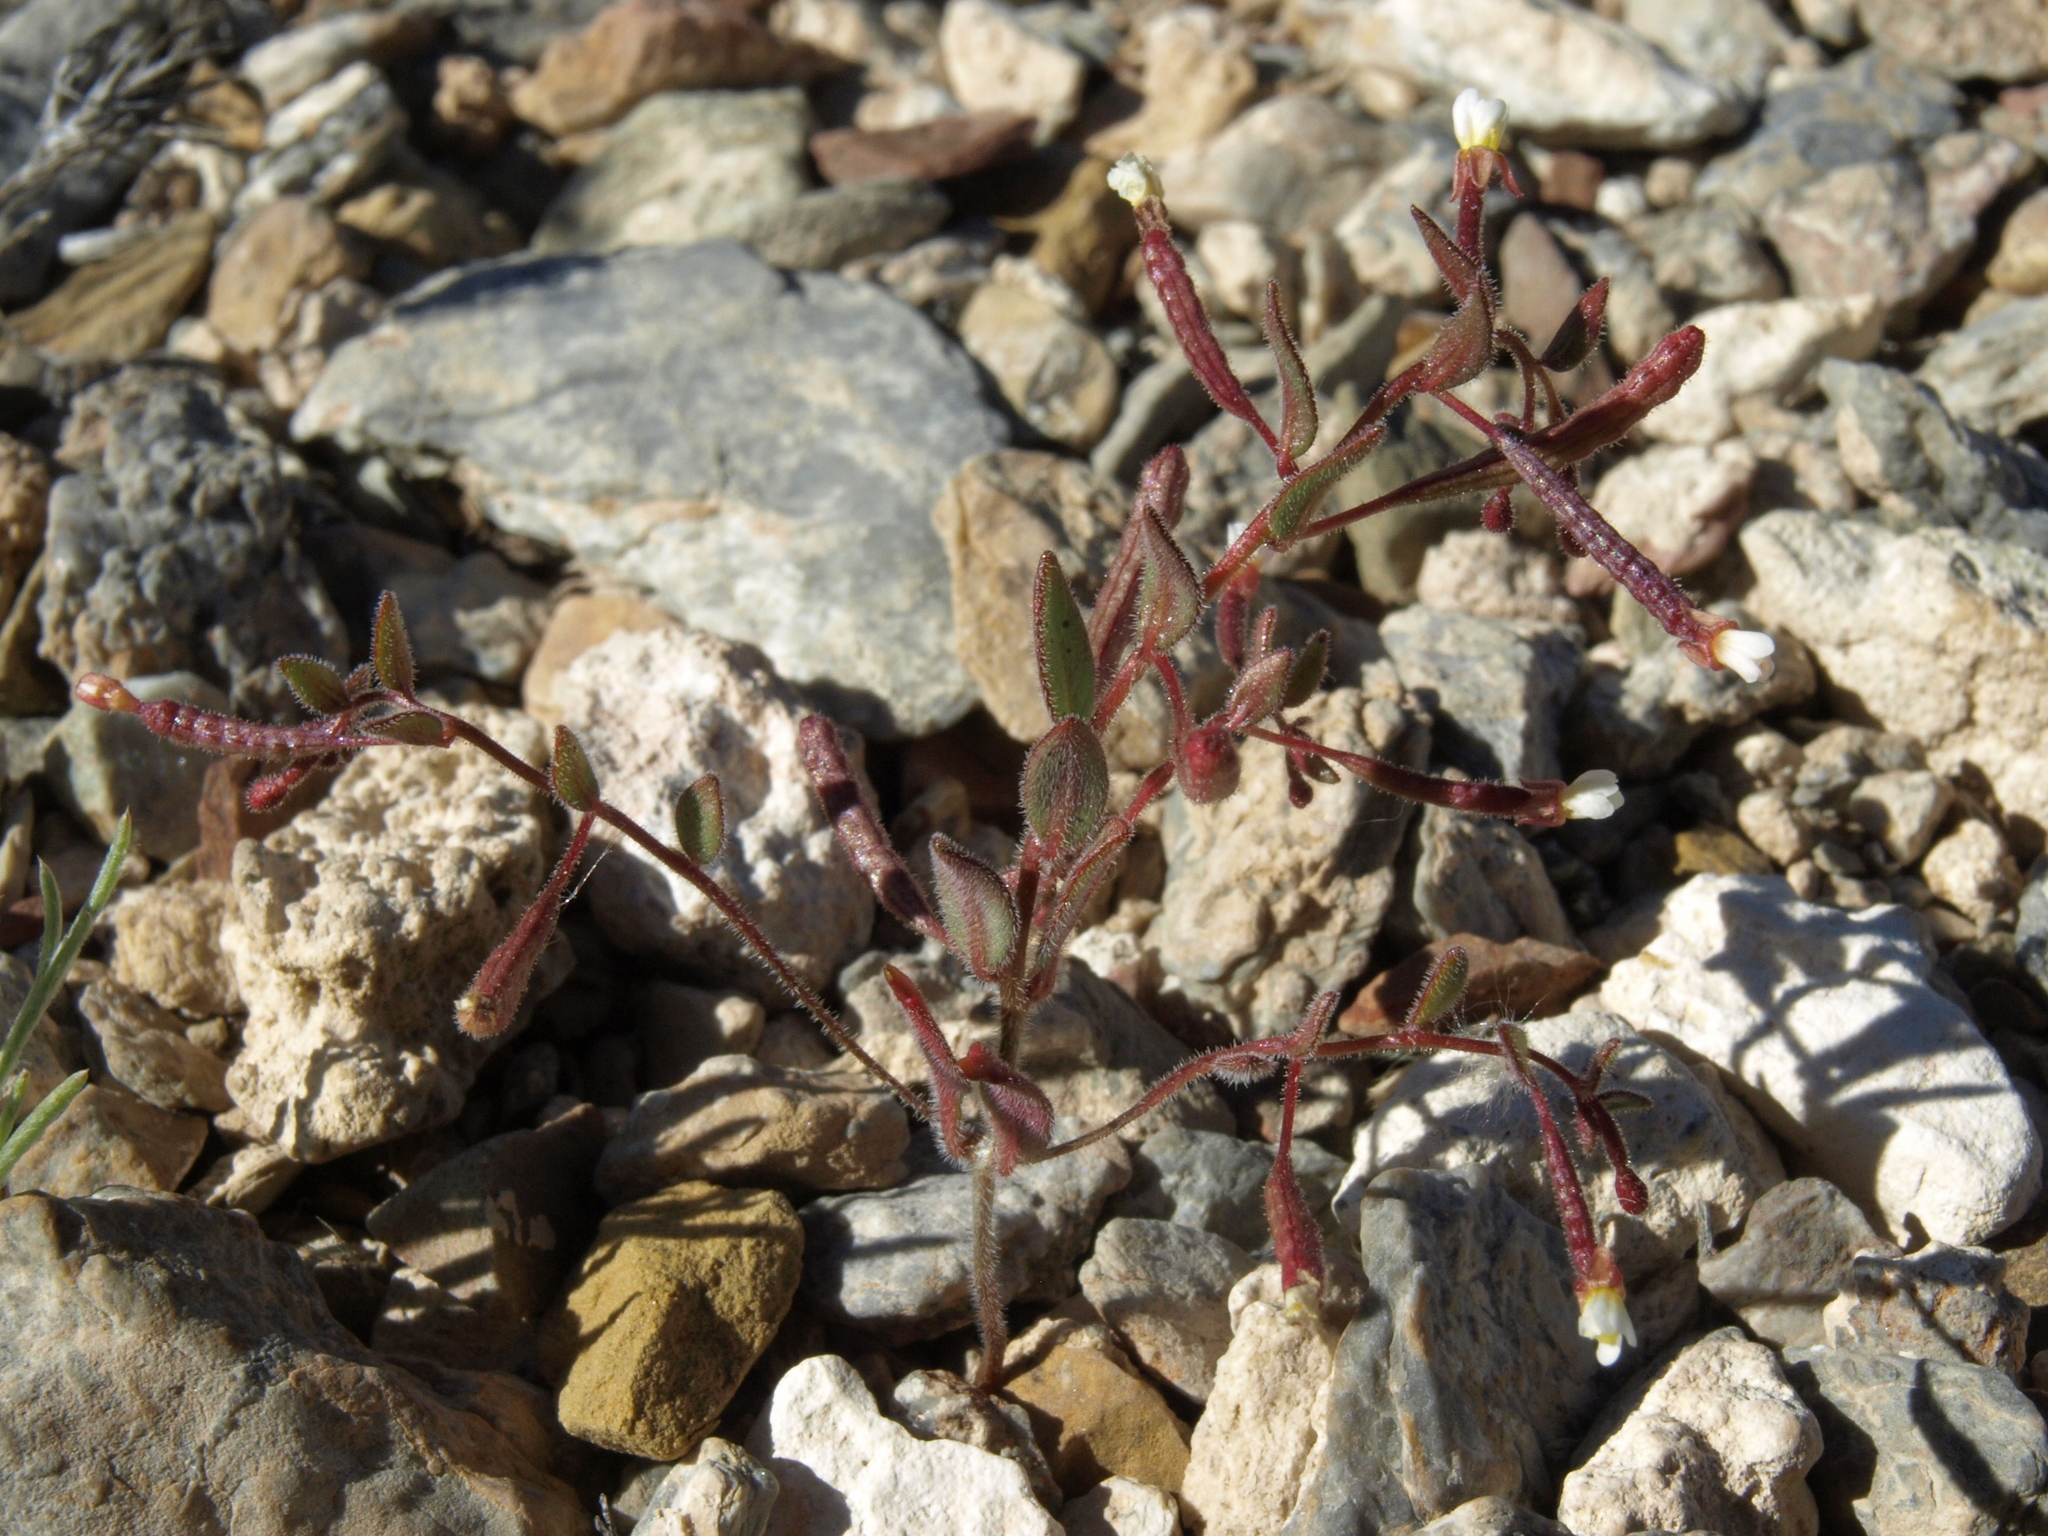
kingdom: Plantae
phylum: Tracheophyta
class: Magnoliopsida
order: Myrtales
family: Onagraceae
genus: Chylismiella
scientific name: Chylismiella pterosperma
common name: Wingfruit suncup
